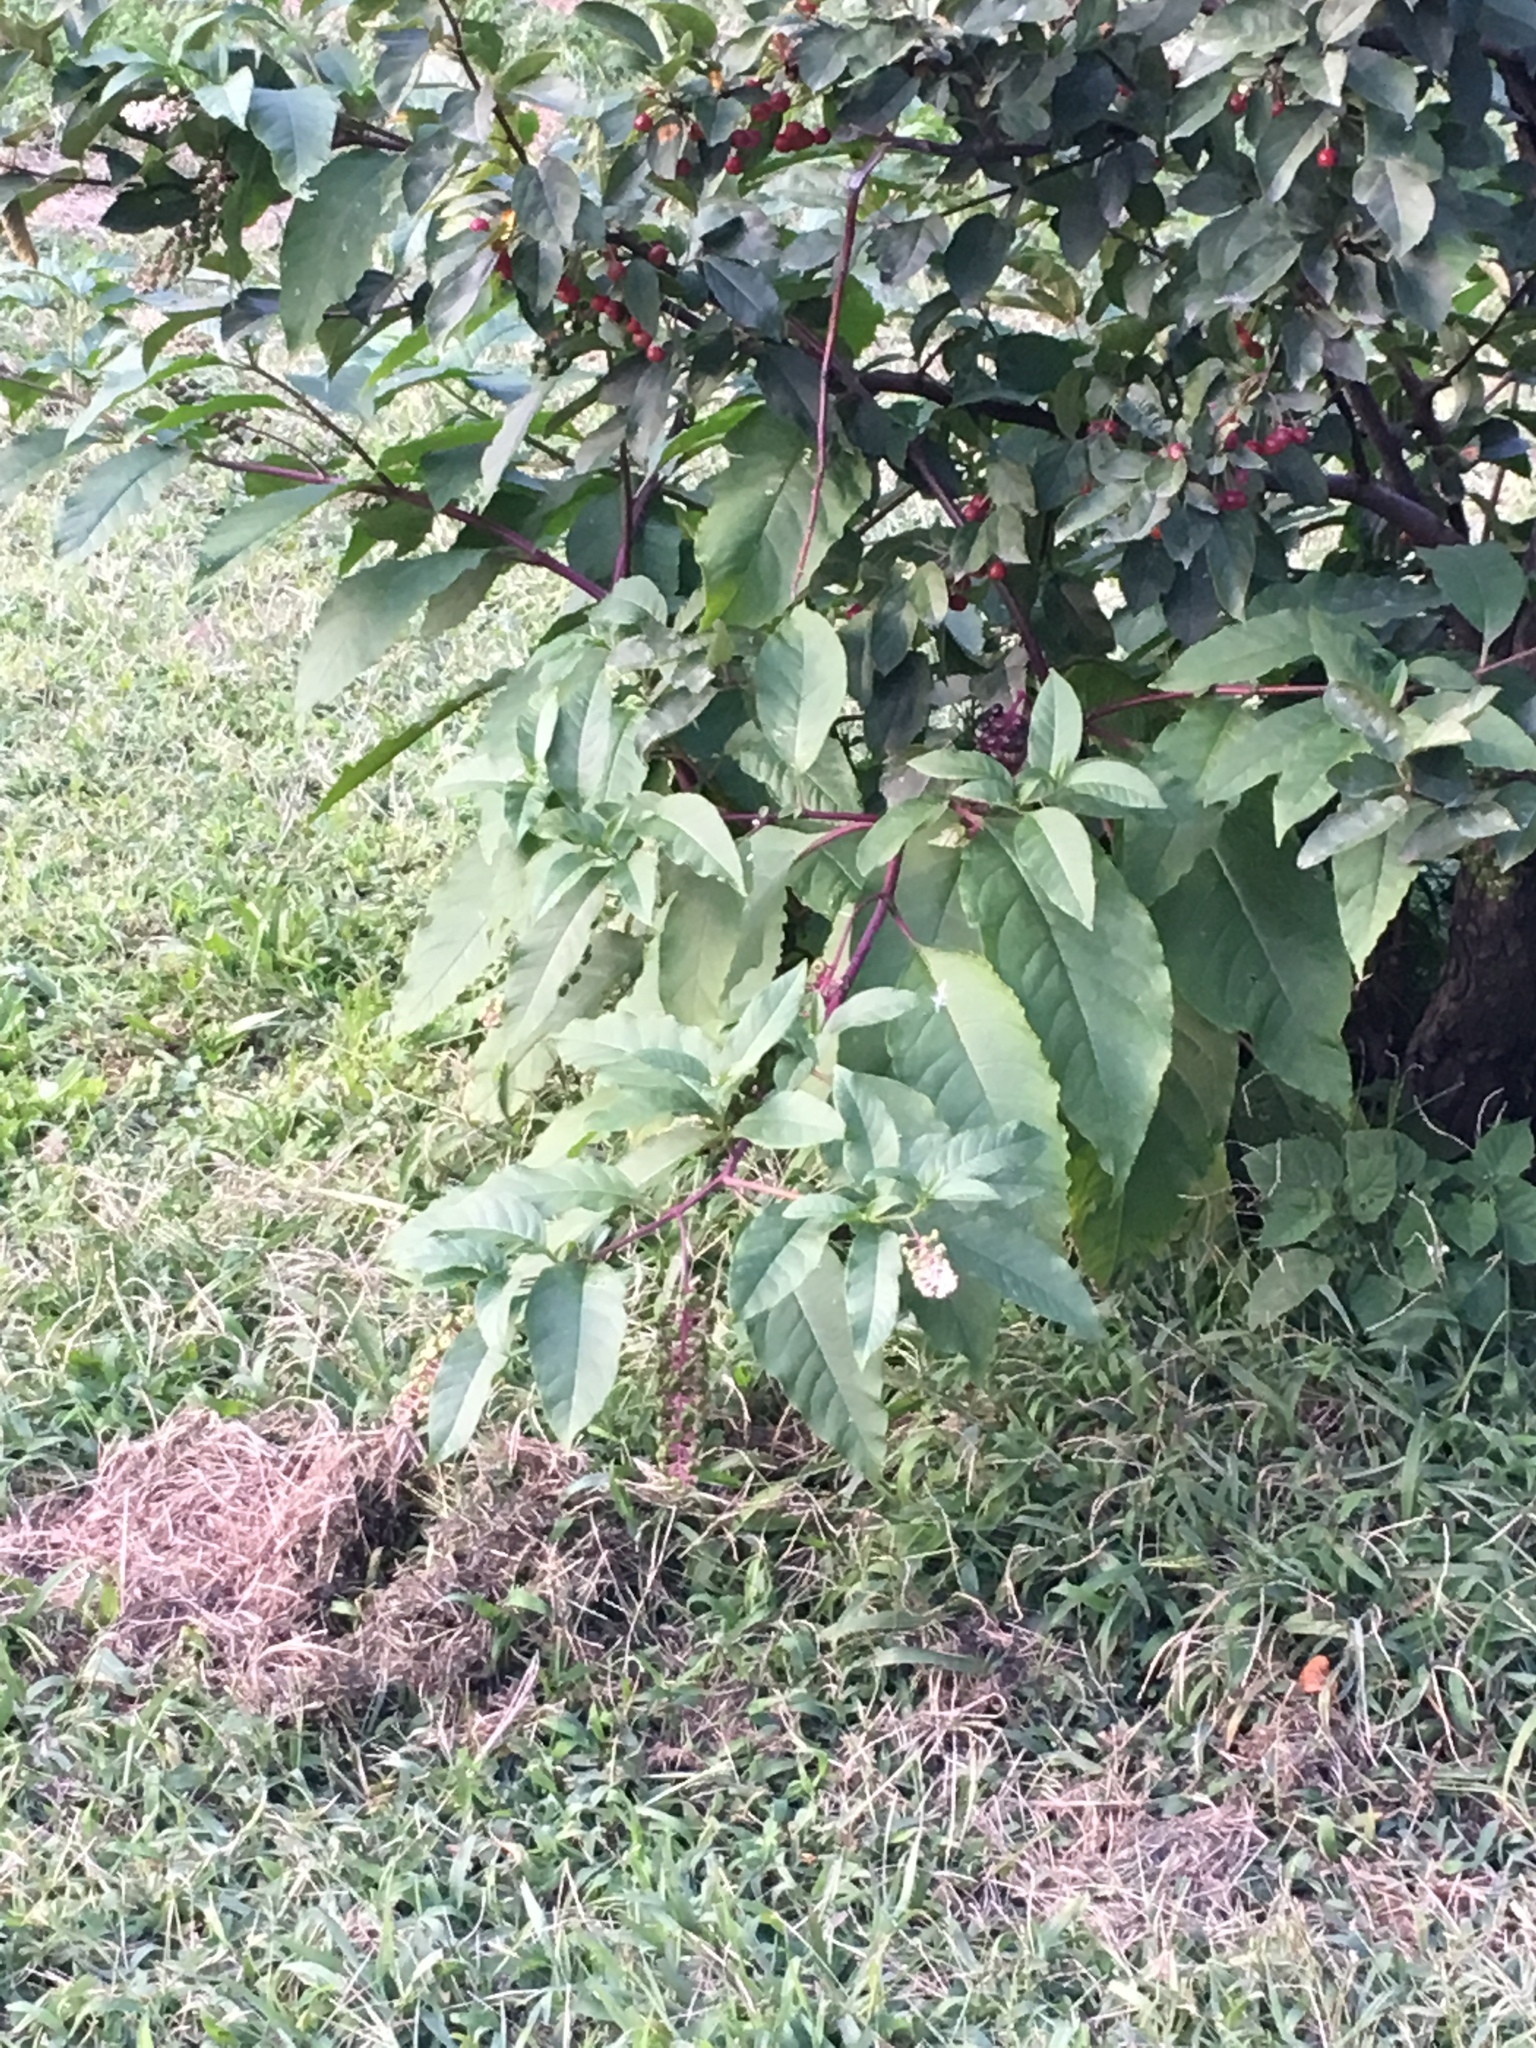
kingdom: Plantae
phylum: Tracheophyta
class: Magnoliopsida
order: Caryophyllales
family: Phytolaccaceae
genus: Phytolacca
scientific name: Phytolacca americana
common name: American pokeweed
